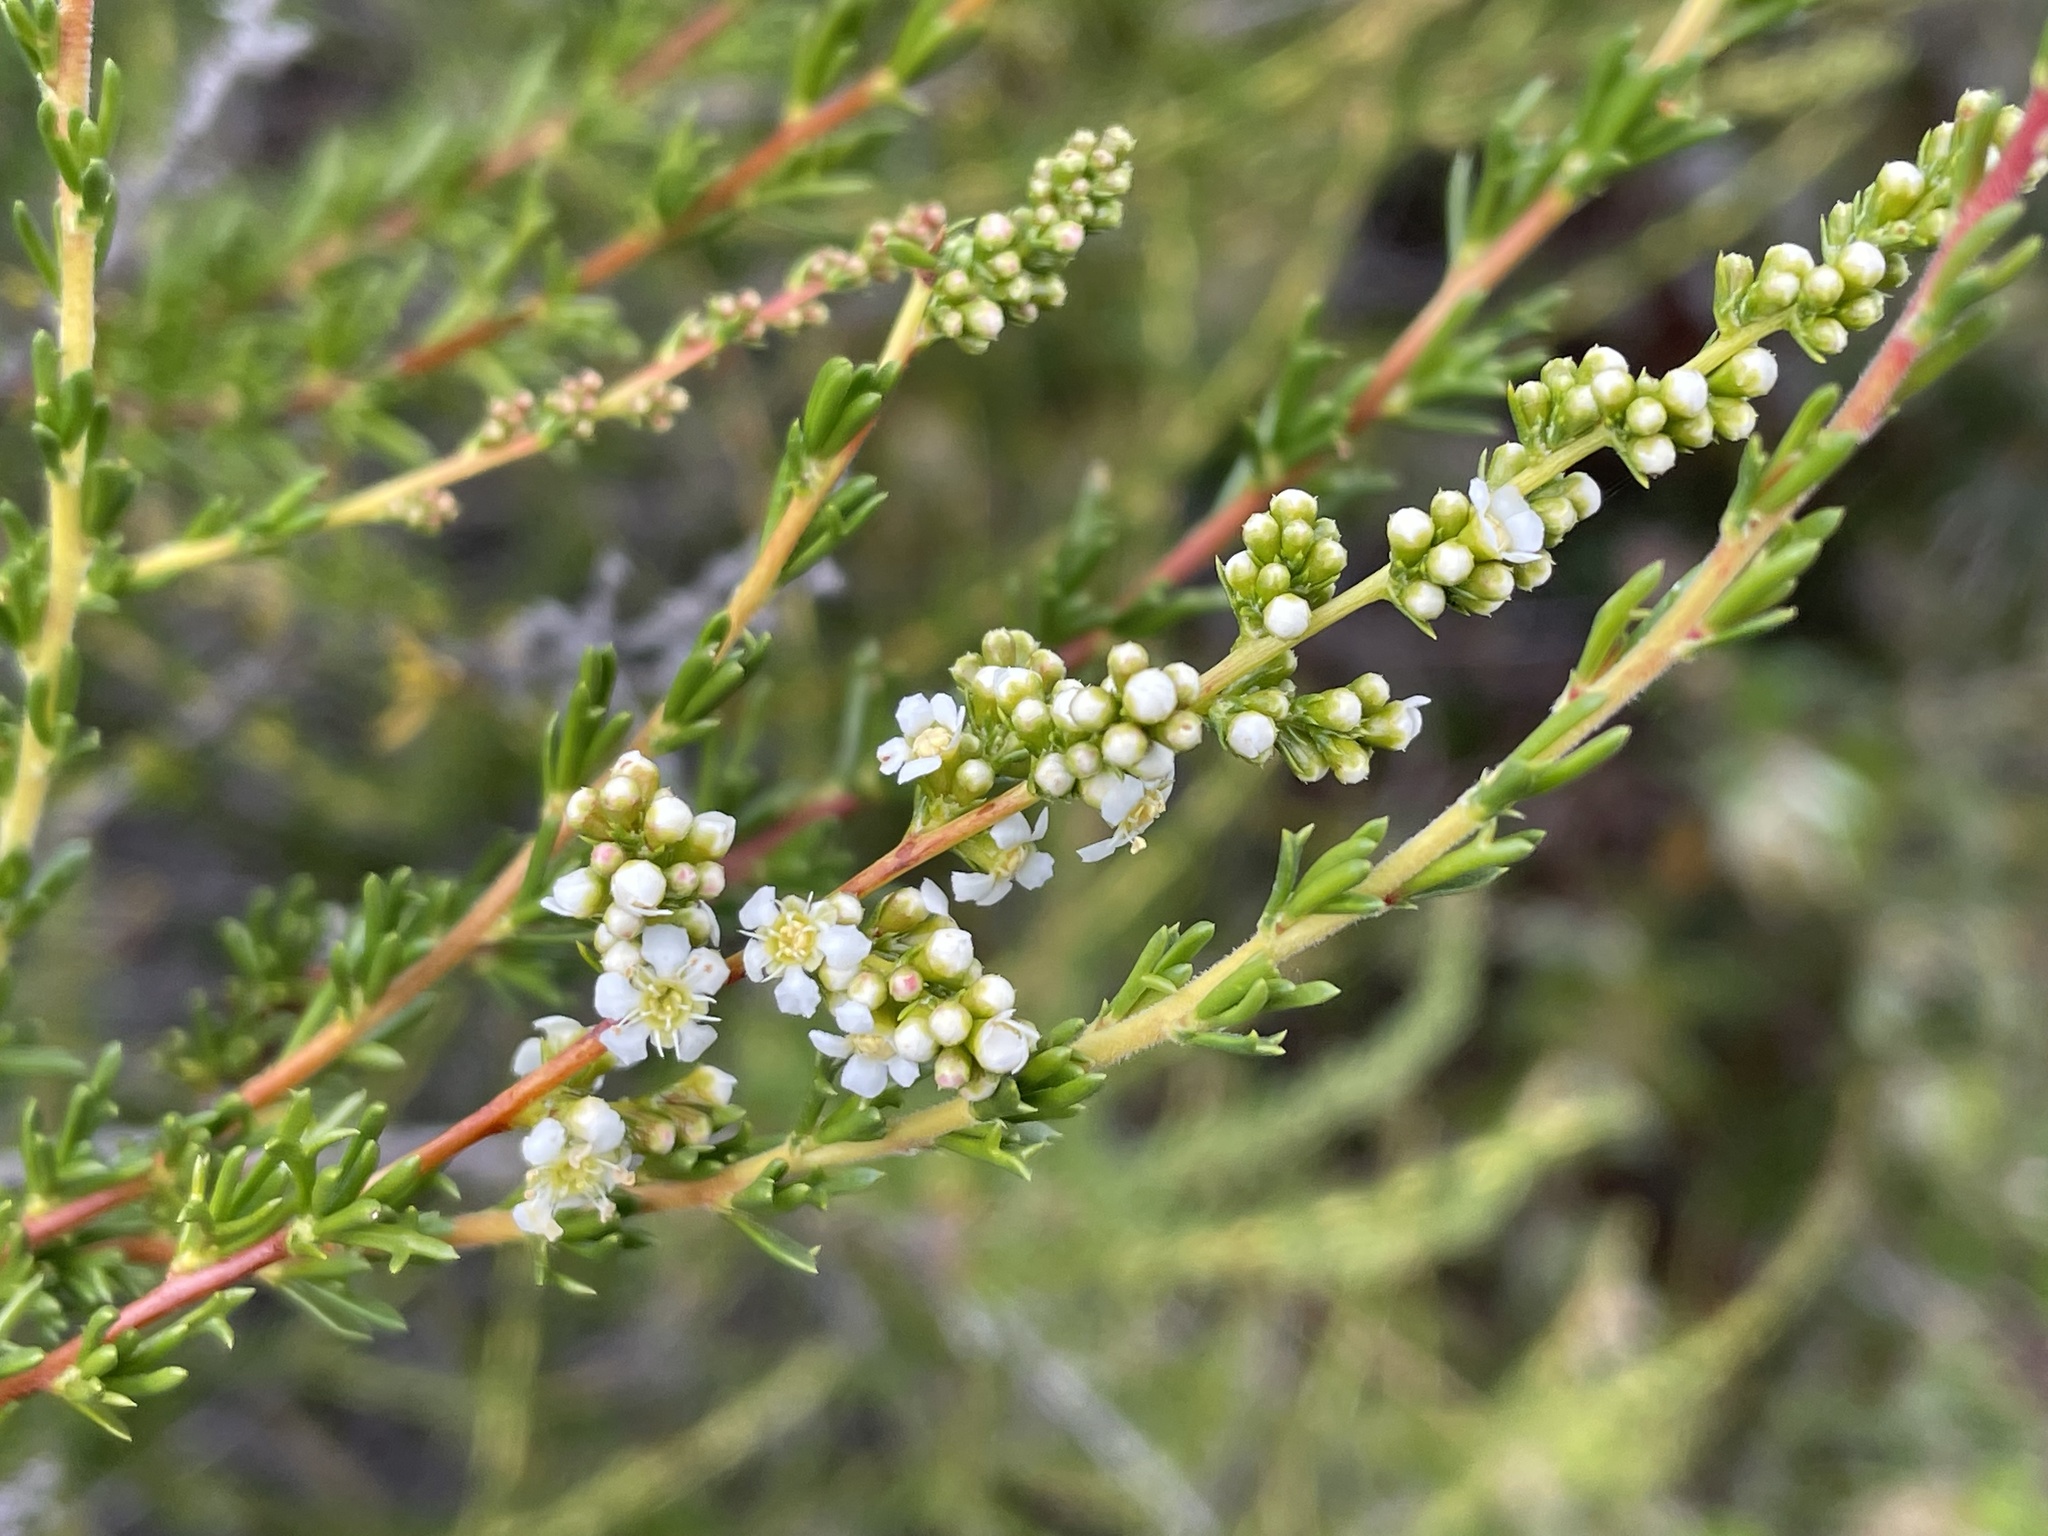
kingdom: Plantae
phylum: Tracheophyta
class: Magnoliopsida
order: Rosales
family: Rosaceae
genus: Adenostoma
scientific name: Adenostoma fasciculatum
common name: Chamise
